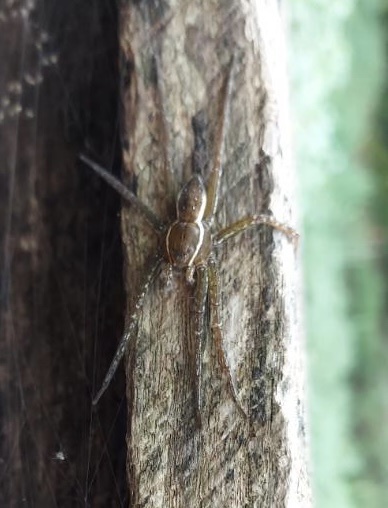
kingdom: Animalia
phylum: Arthropoda
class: Arachnida
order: Araneae
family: Pisauridae
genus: Dolomedes
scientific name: Dolomedes triton
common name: Six-spotted fishing spider
